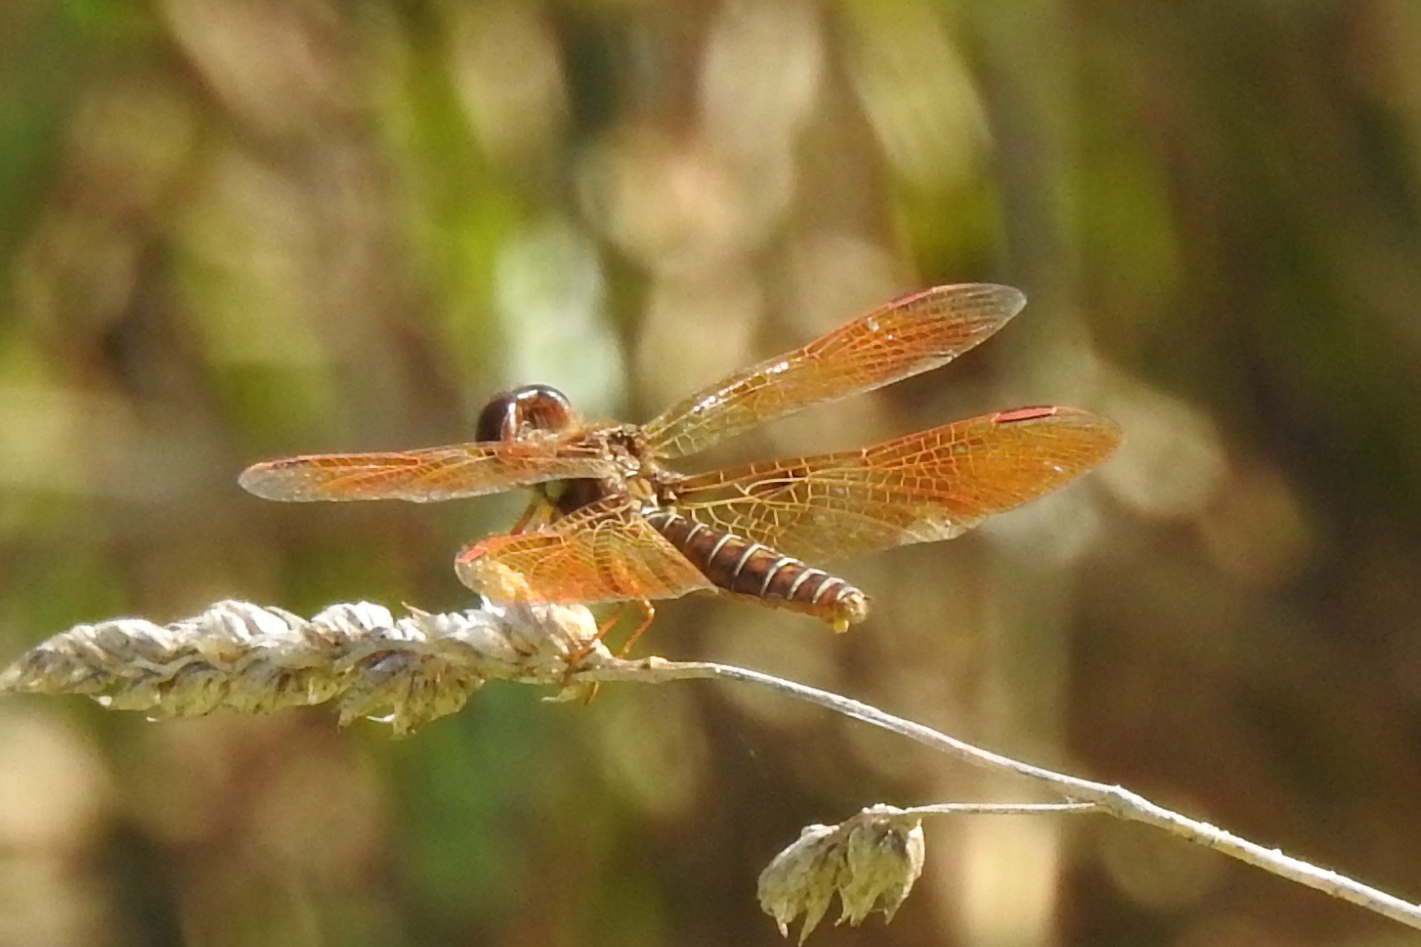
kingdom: Animalia
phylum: Arthropoda
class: Insecta
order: Odonata
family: Libellulidae
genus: Perithemis
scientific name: Perithemis tenera
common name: Eastern amberwing
